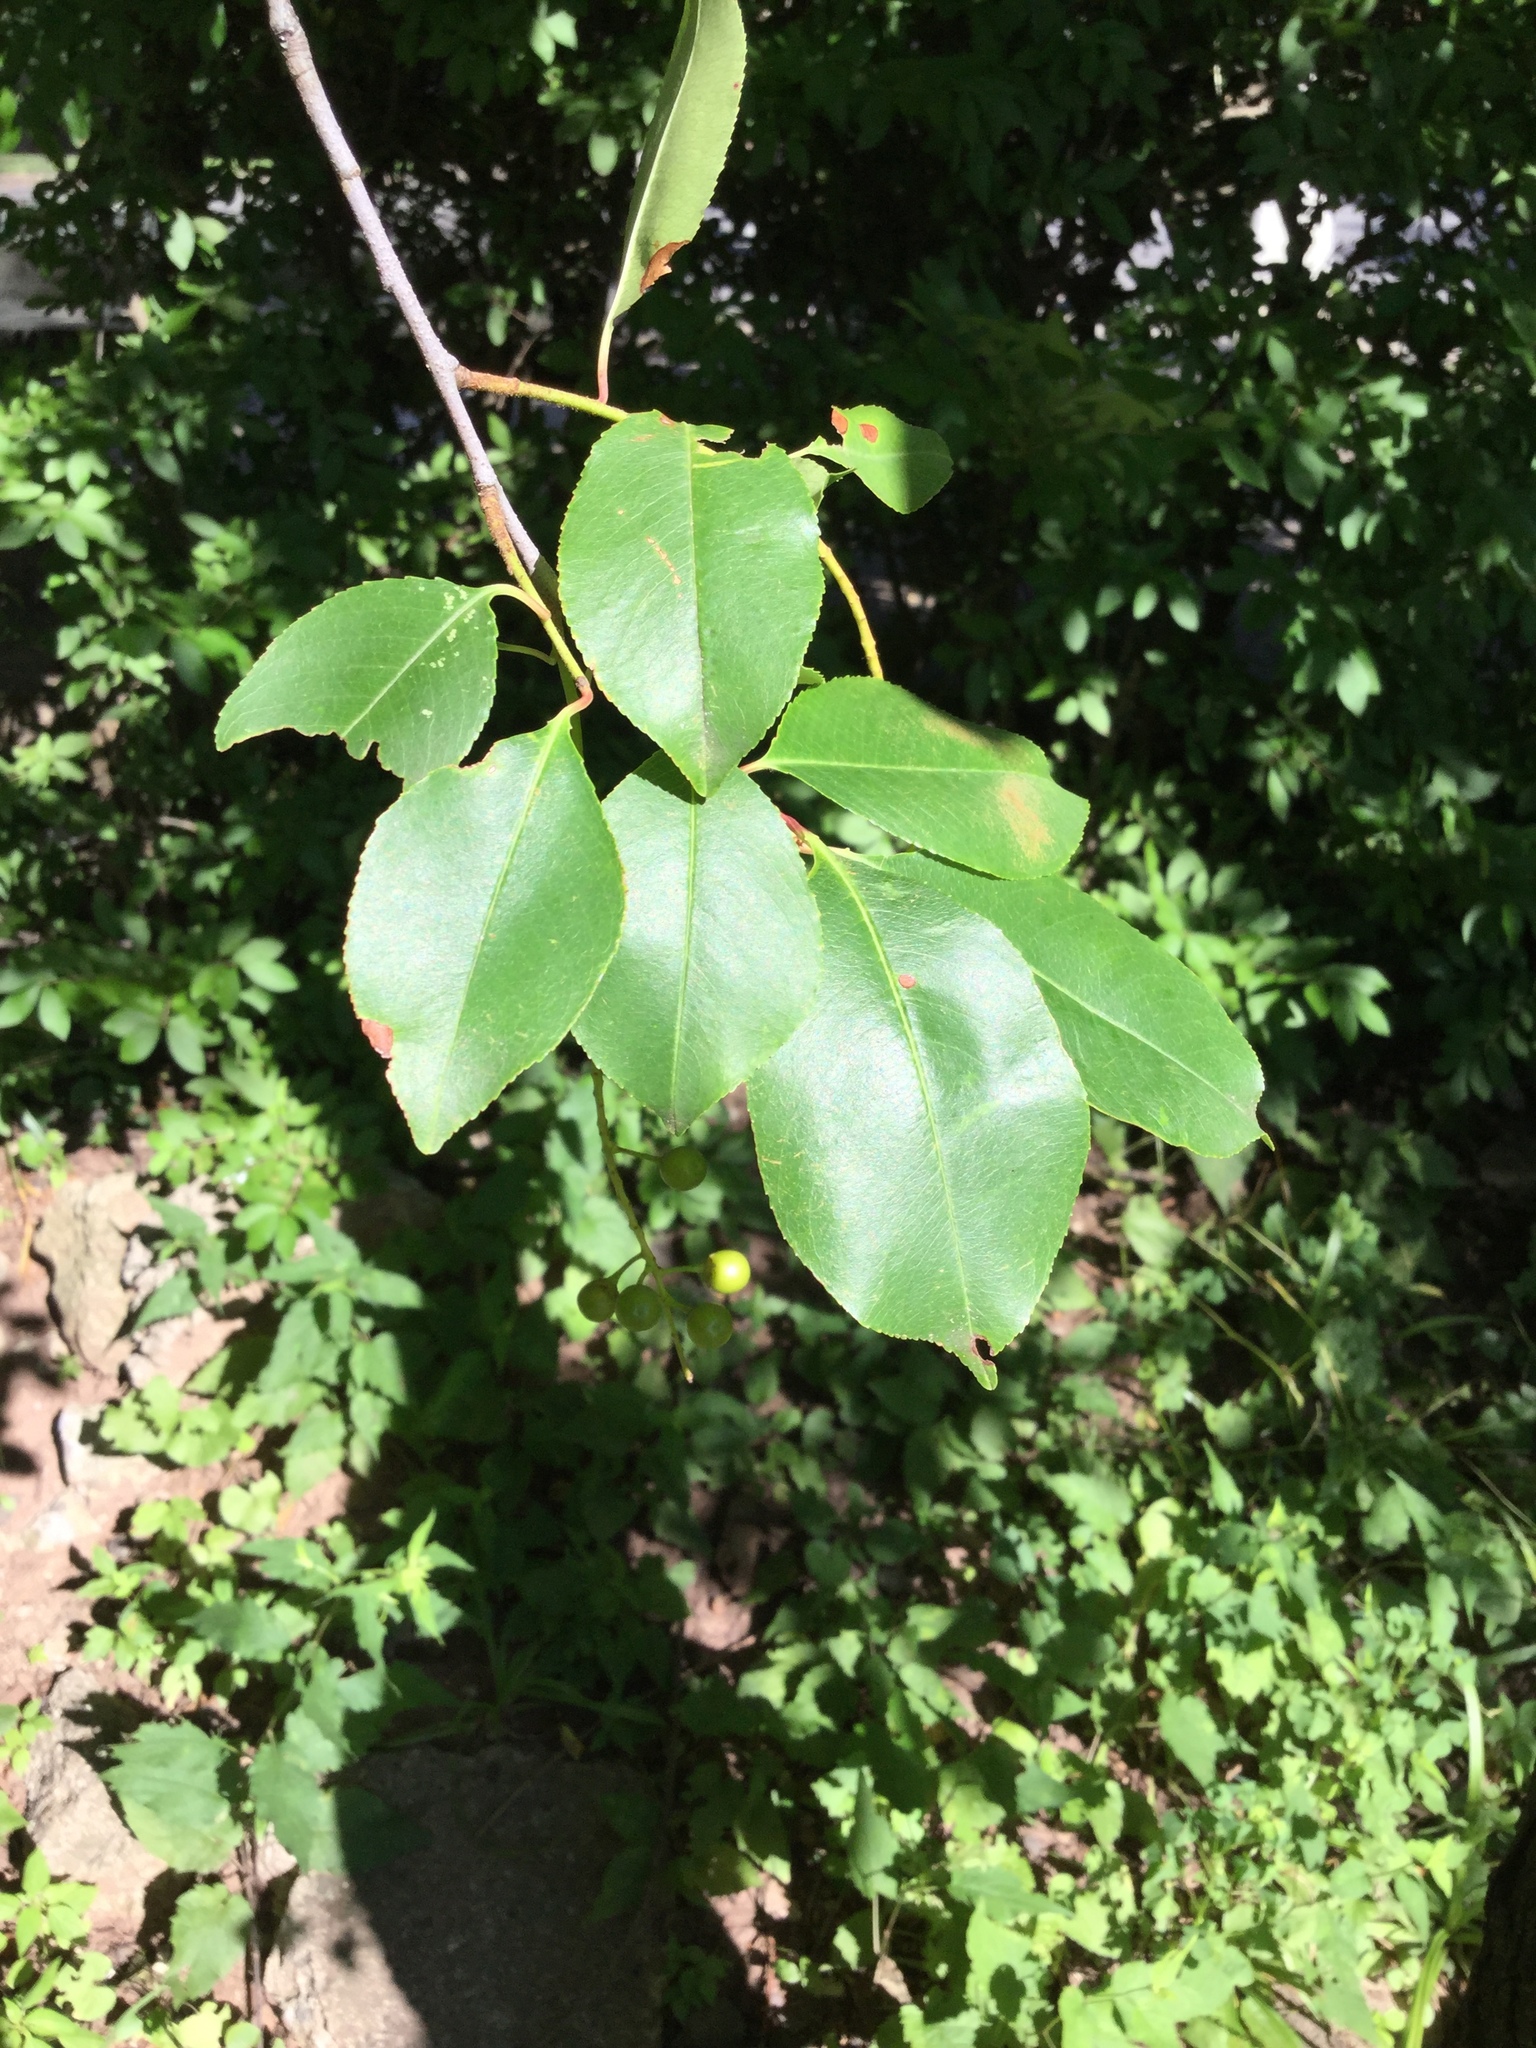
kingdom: Plantae
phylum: Tracheophyta
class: Magnoliopsida
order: Rosales
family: Rosaceae
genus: Prunus
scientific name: Prunus serotina
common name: Black cherry
